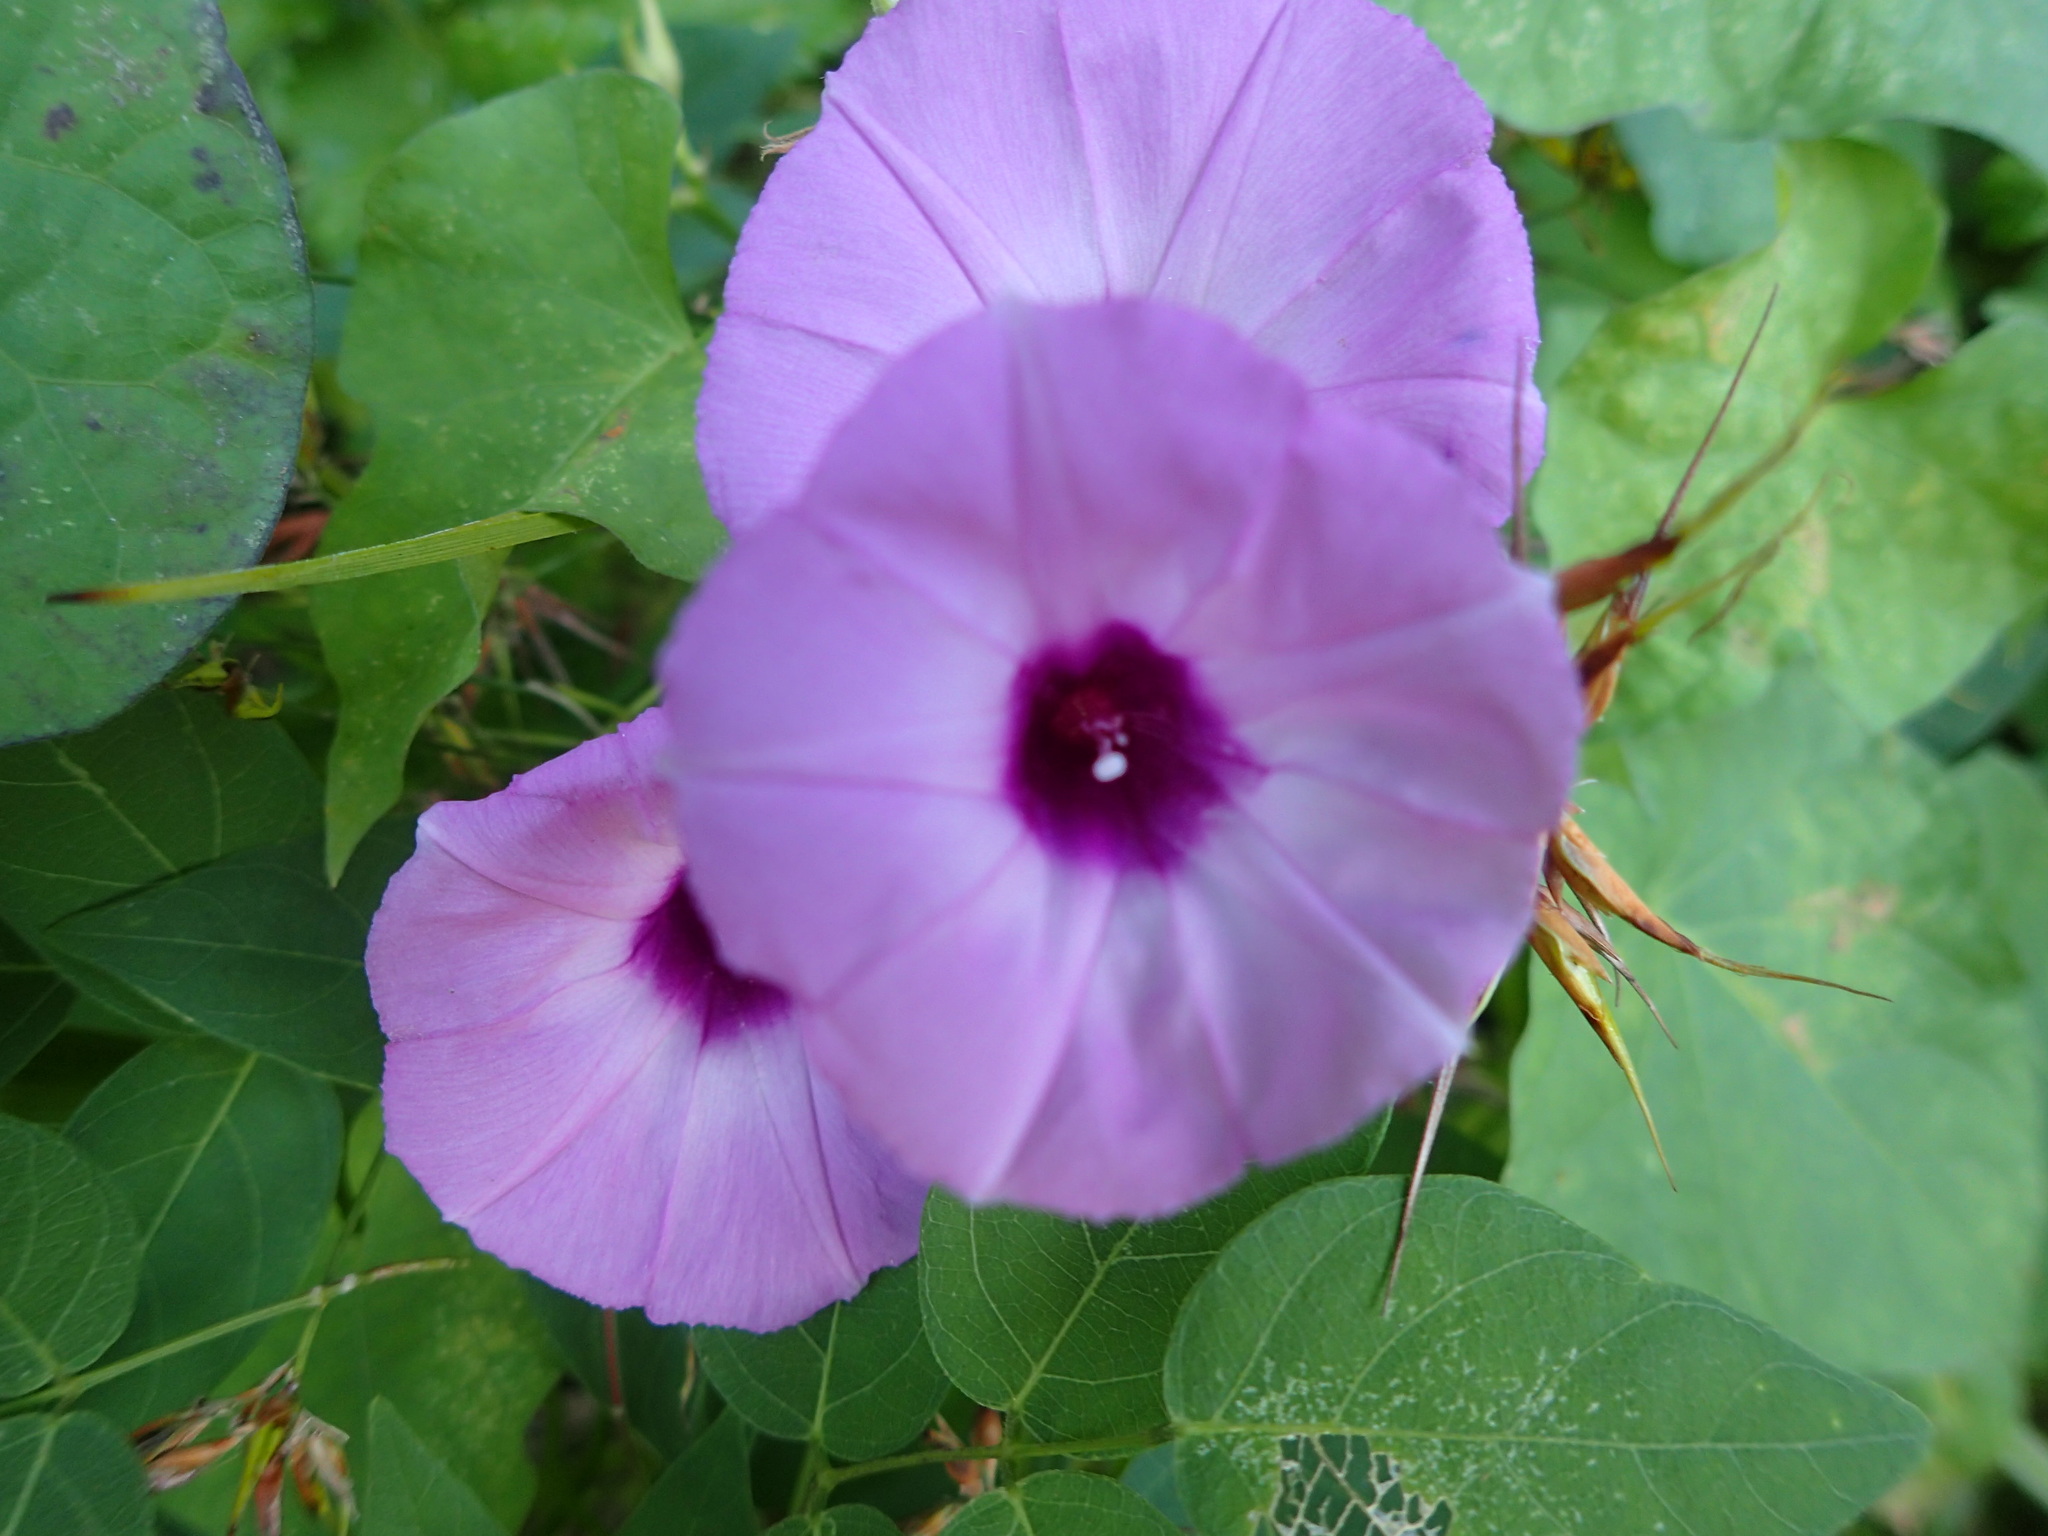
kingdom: Plantae
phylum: Tracheophyta
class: Magnoliopsida
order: Solanales
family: Convolvulaceae
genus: Ipomoea
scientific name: Ipomoea cordatotriloba
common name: Cotton morning glory
